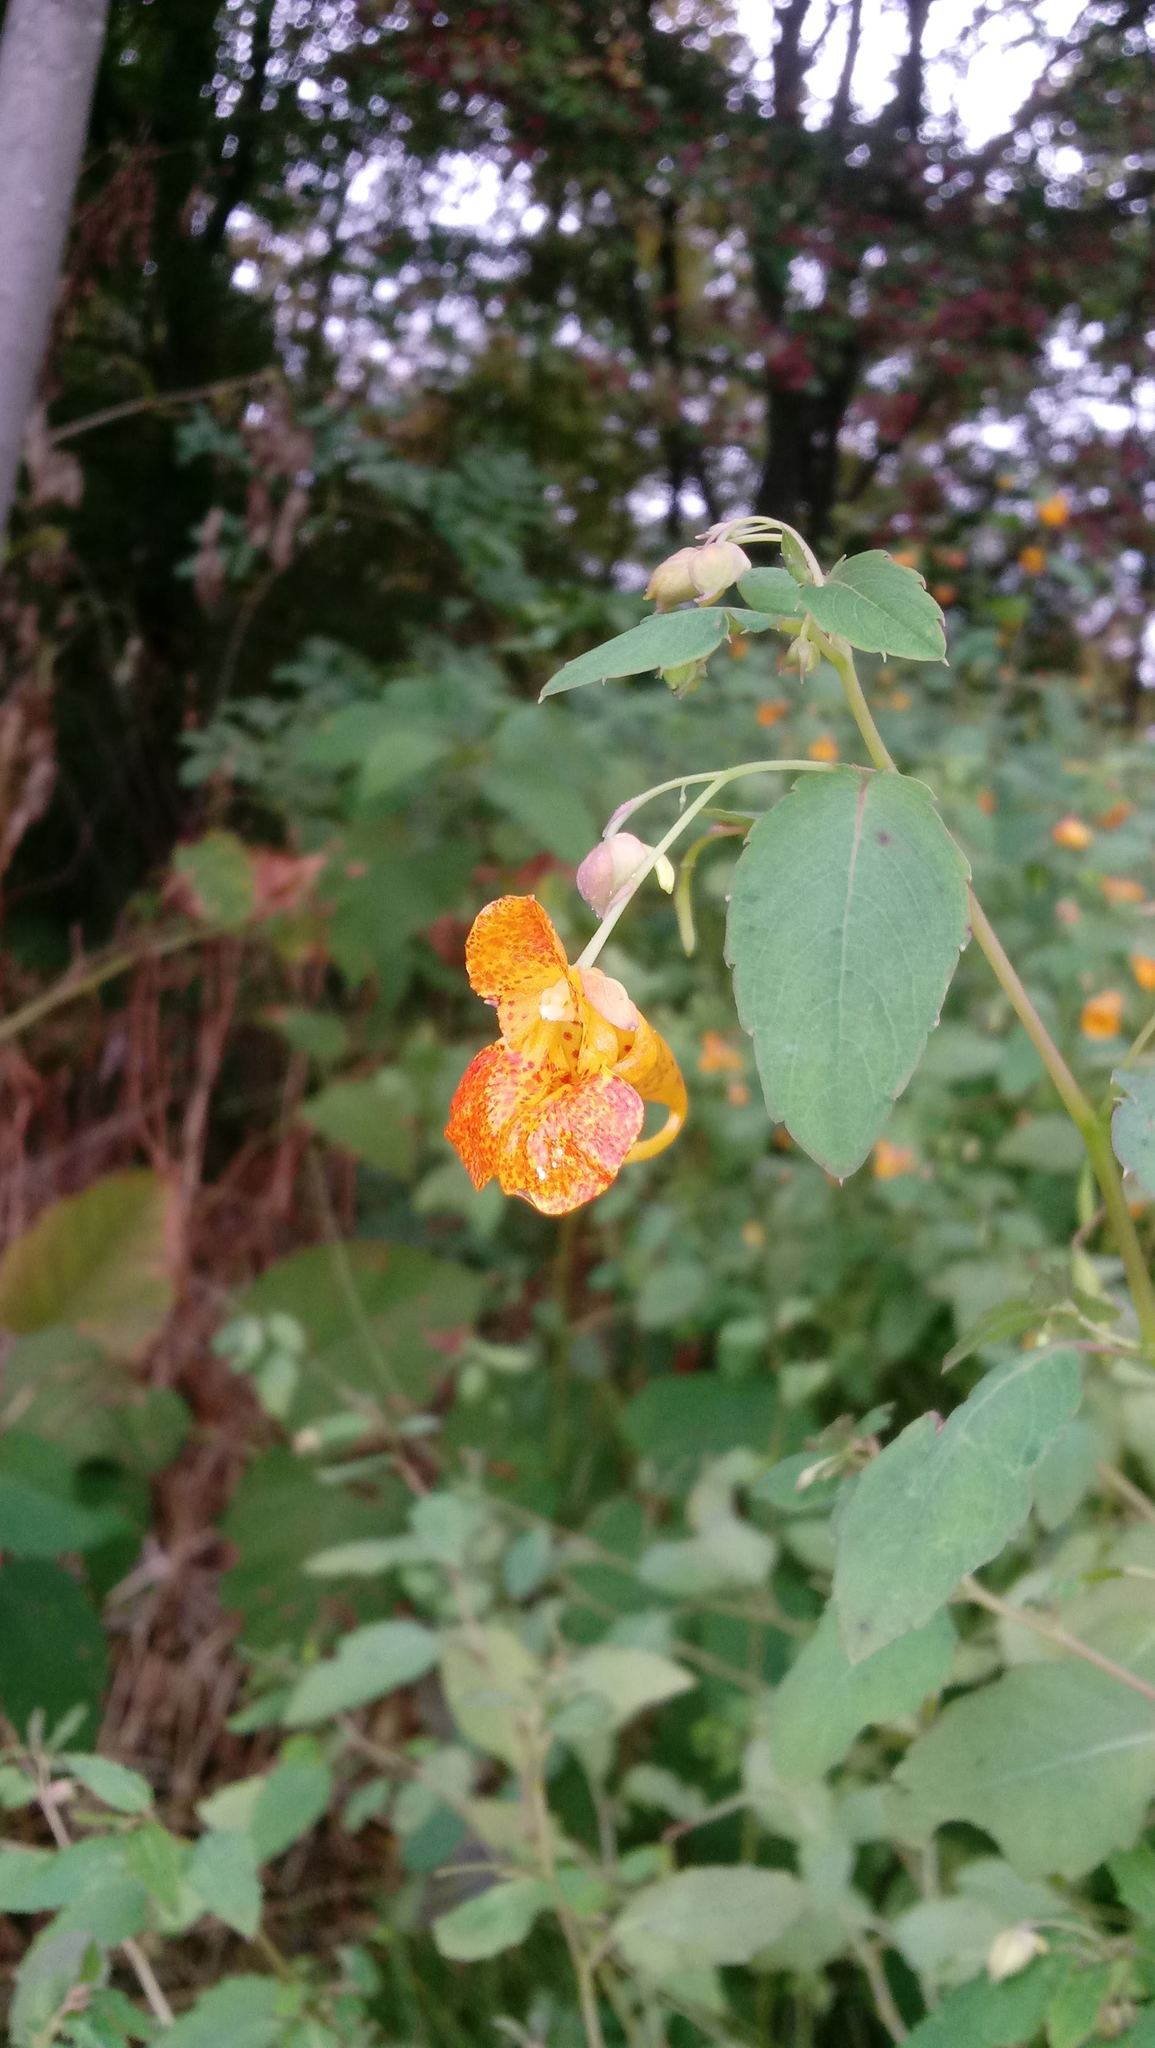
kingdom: Plantae
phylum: Tracheophyta
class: Magnoliopsida
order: Ericales
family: Balsaminaceae
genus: Impatiens
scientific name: Impatiens capensis
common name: Orange balsam
